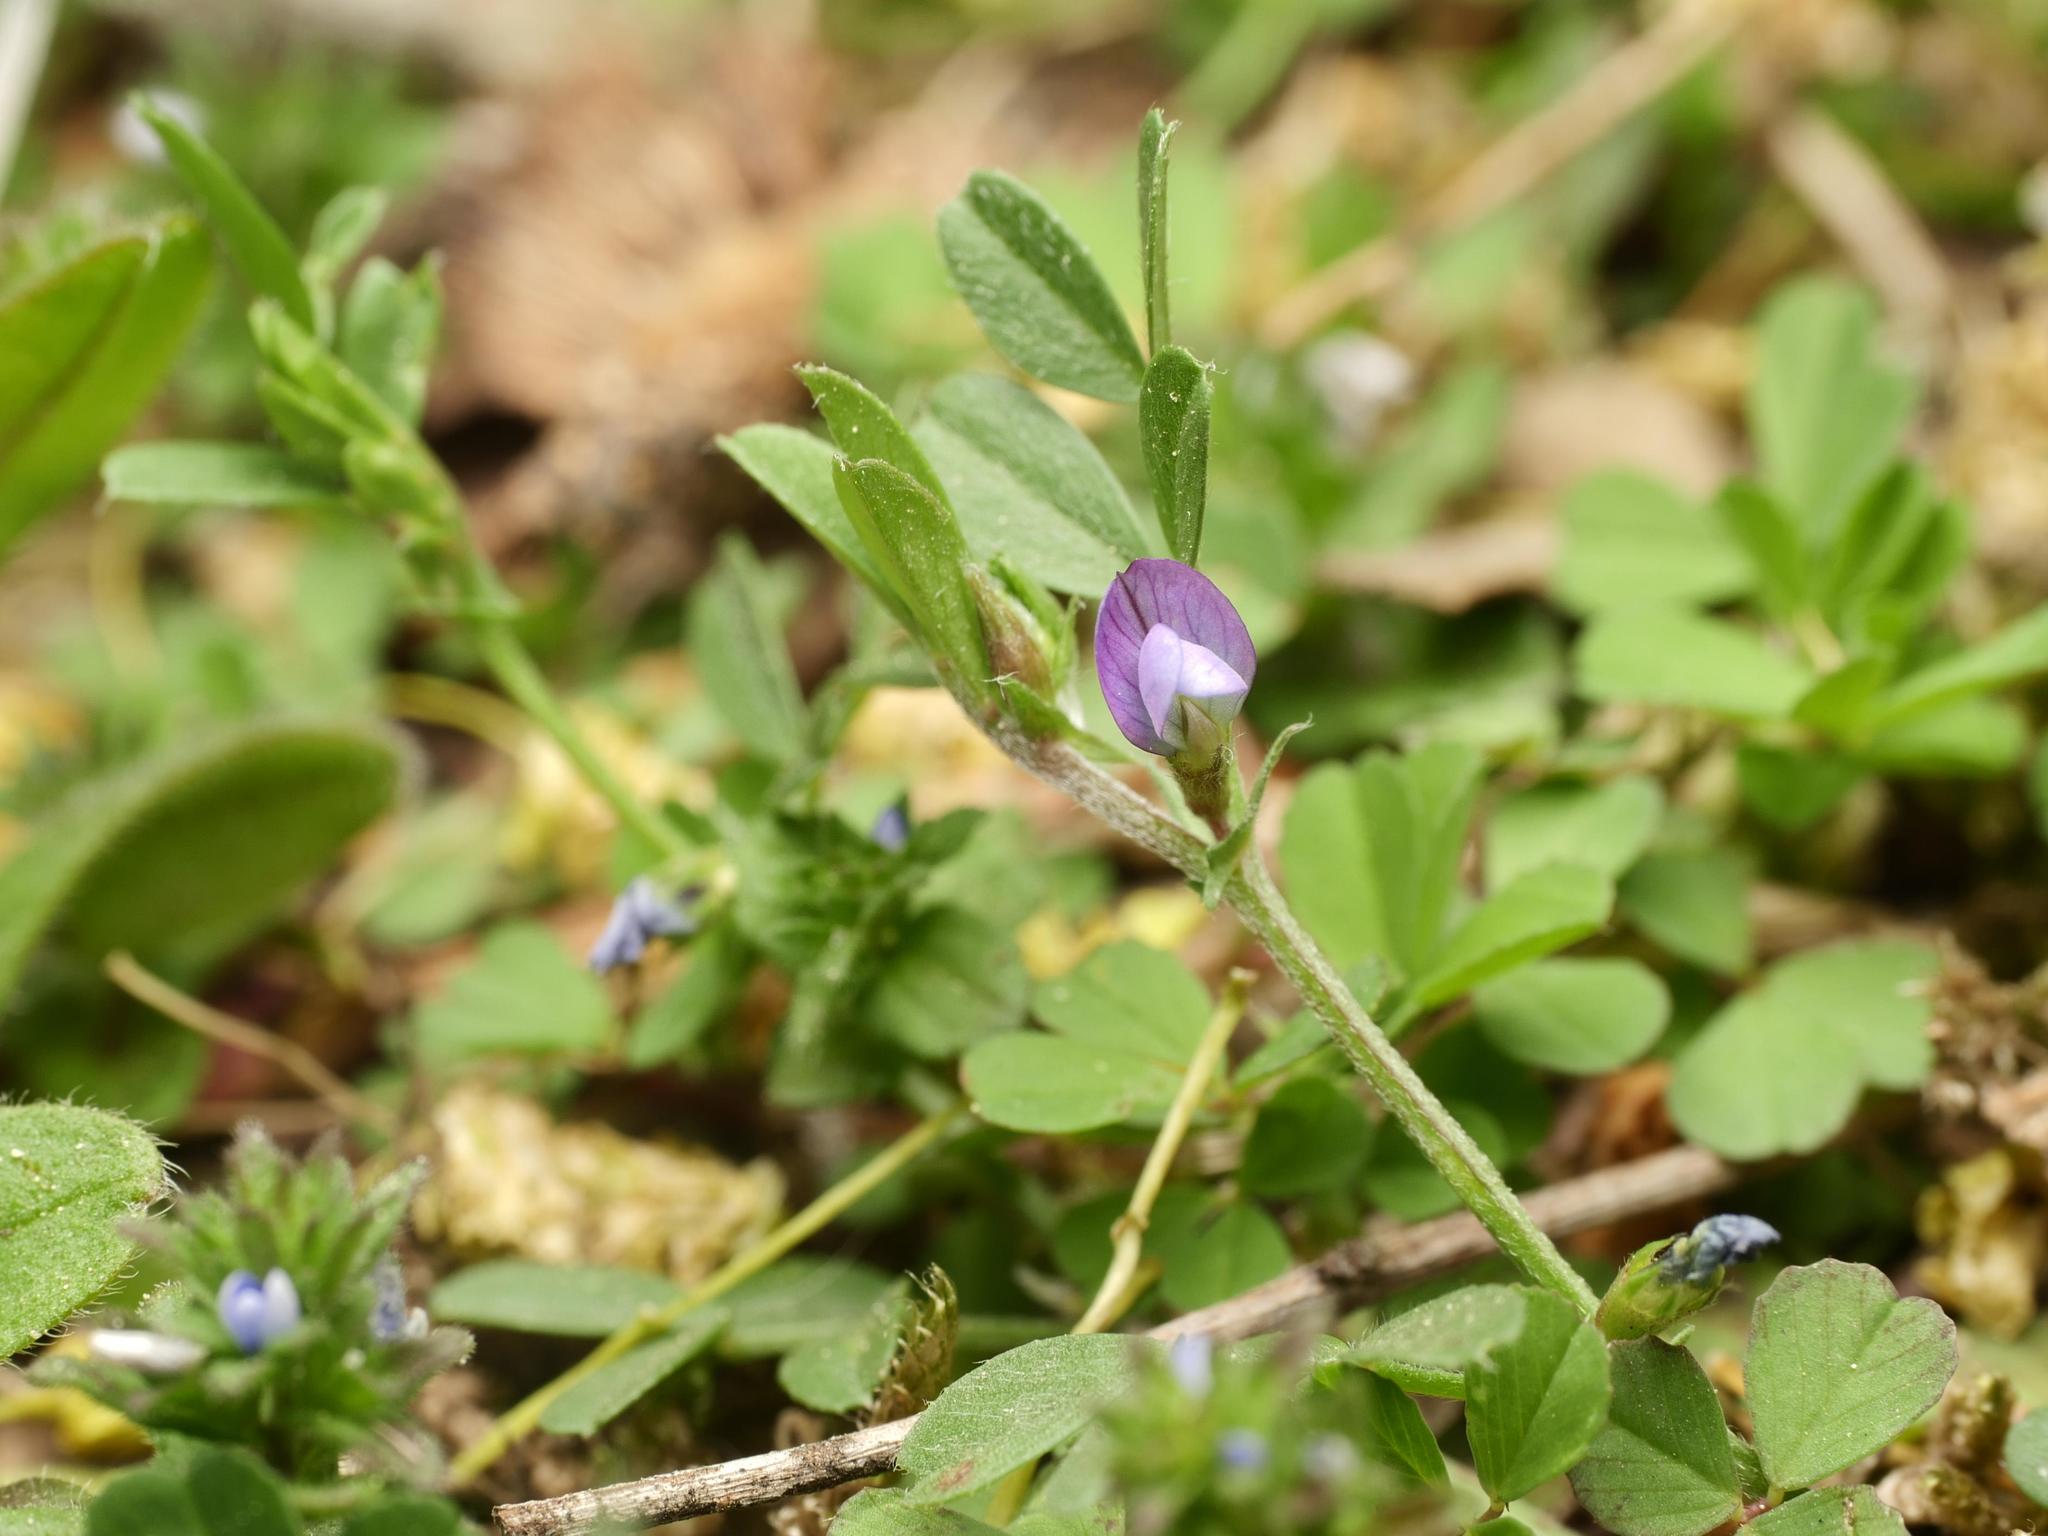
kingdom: Plantae
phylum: Tracheophyta
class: Magnoliopsida
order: Fabales
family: Fabaceae
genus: Vicia
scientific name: Vicia lathyroides
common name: Spring vetch
